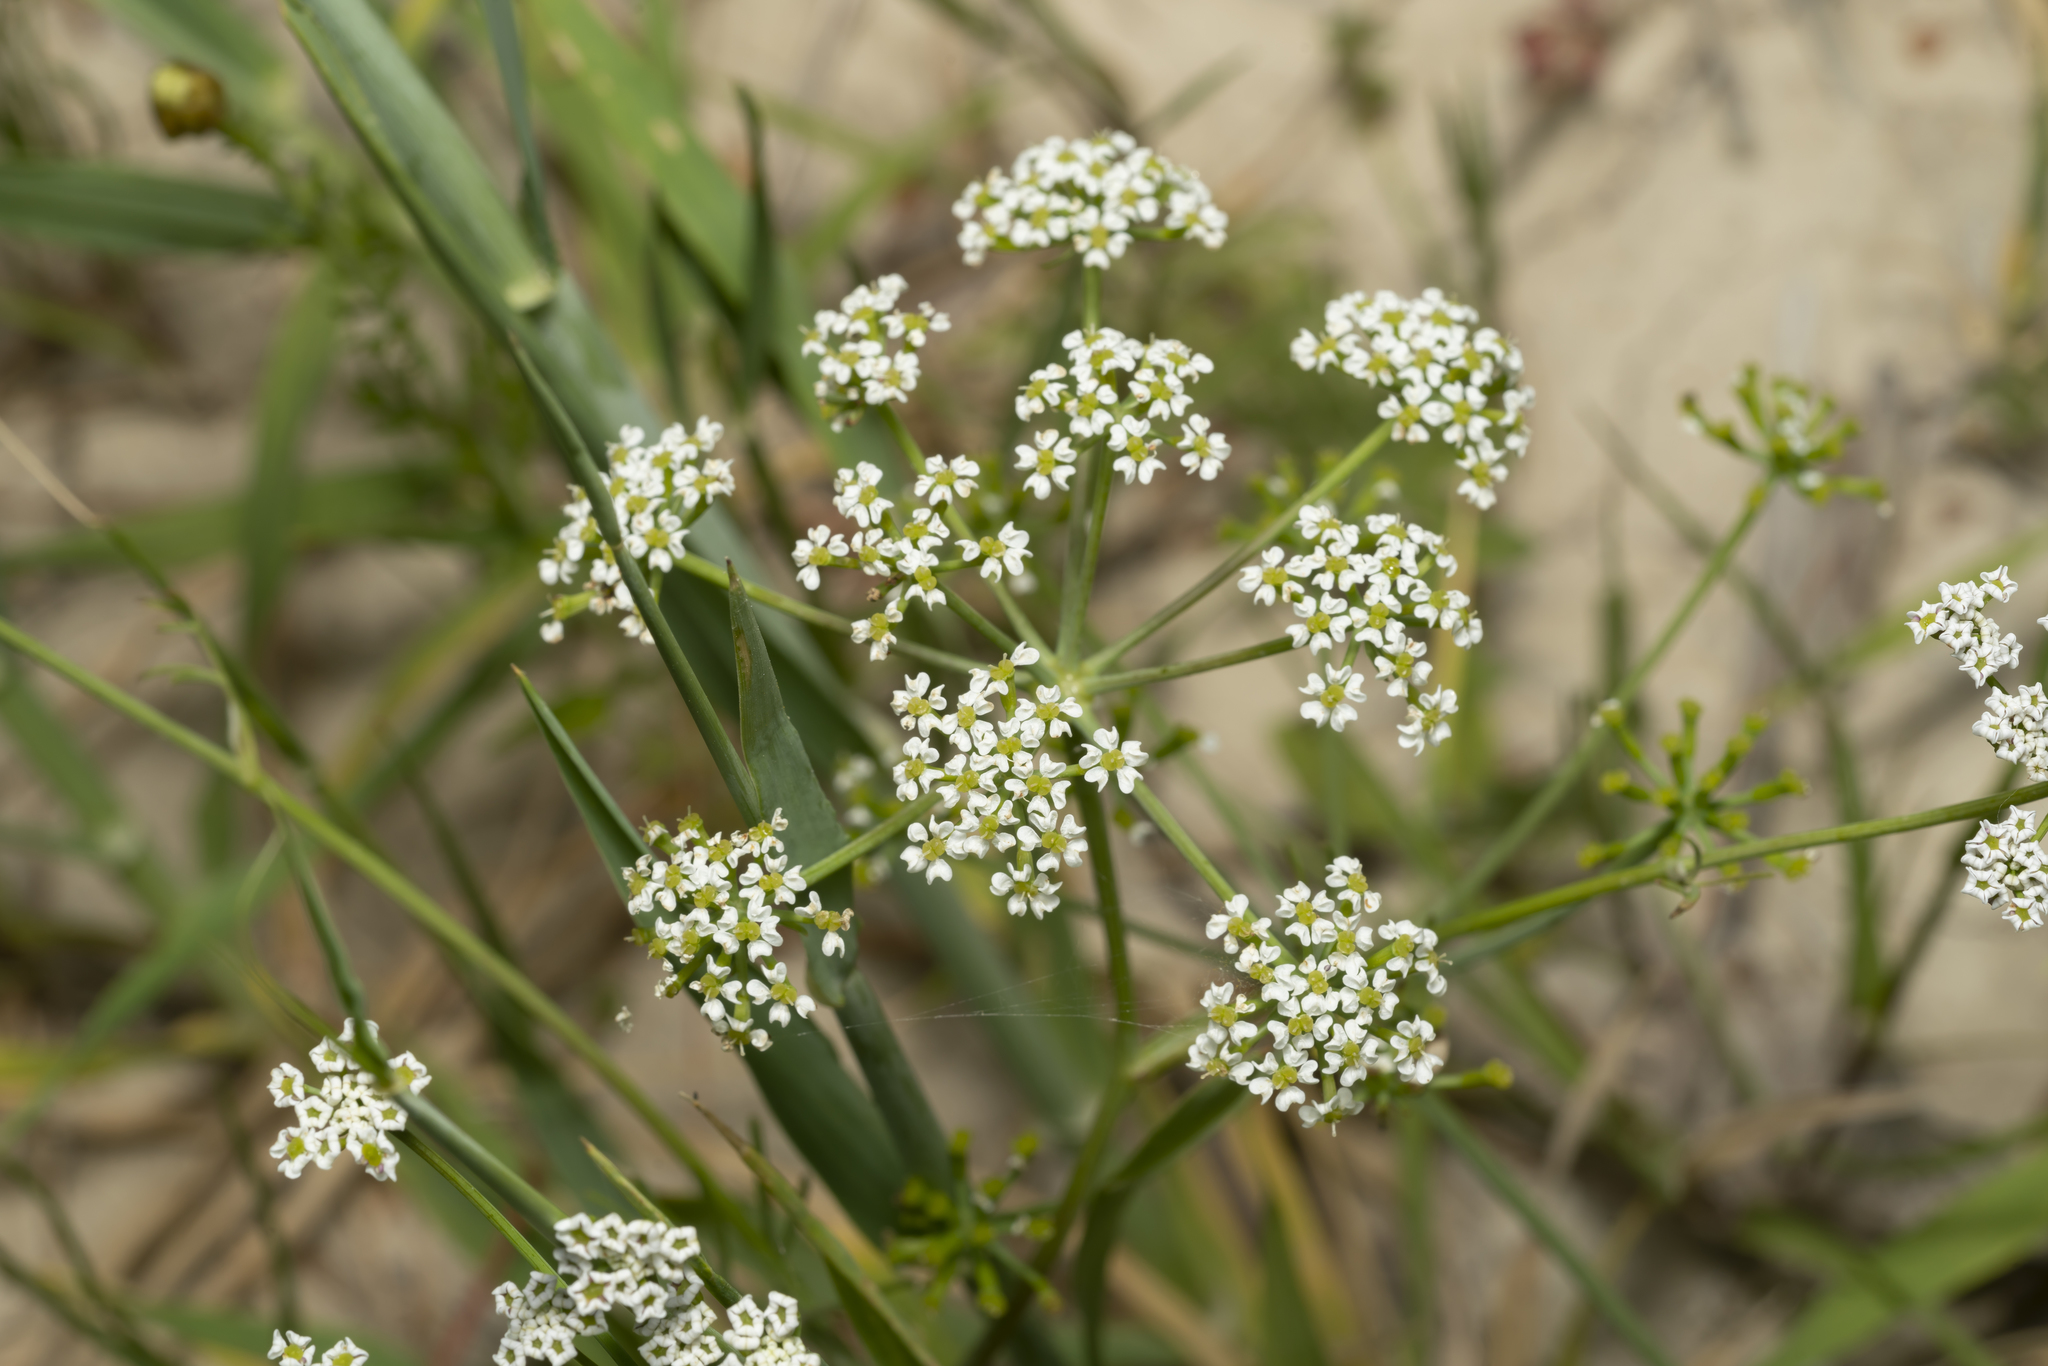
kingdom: Plantae
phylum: Tracheophyta
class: Magnoliopsida
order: Apiales
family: Apiaceae
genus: Bunium
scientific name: Bunium ferulaceum
